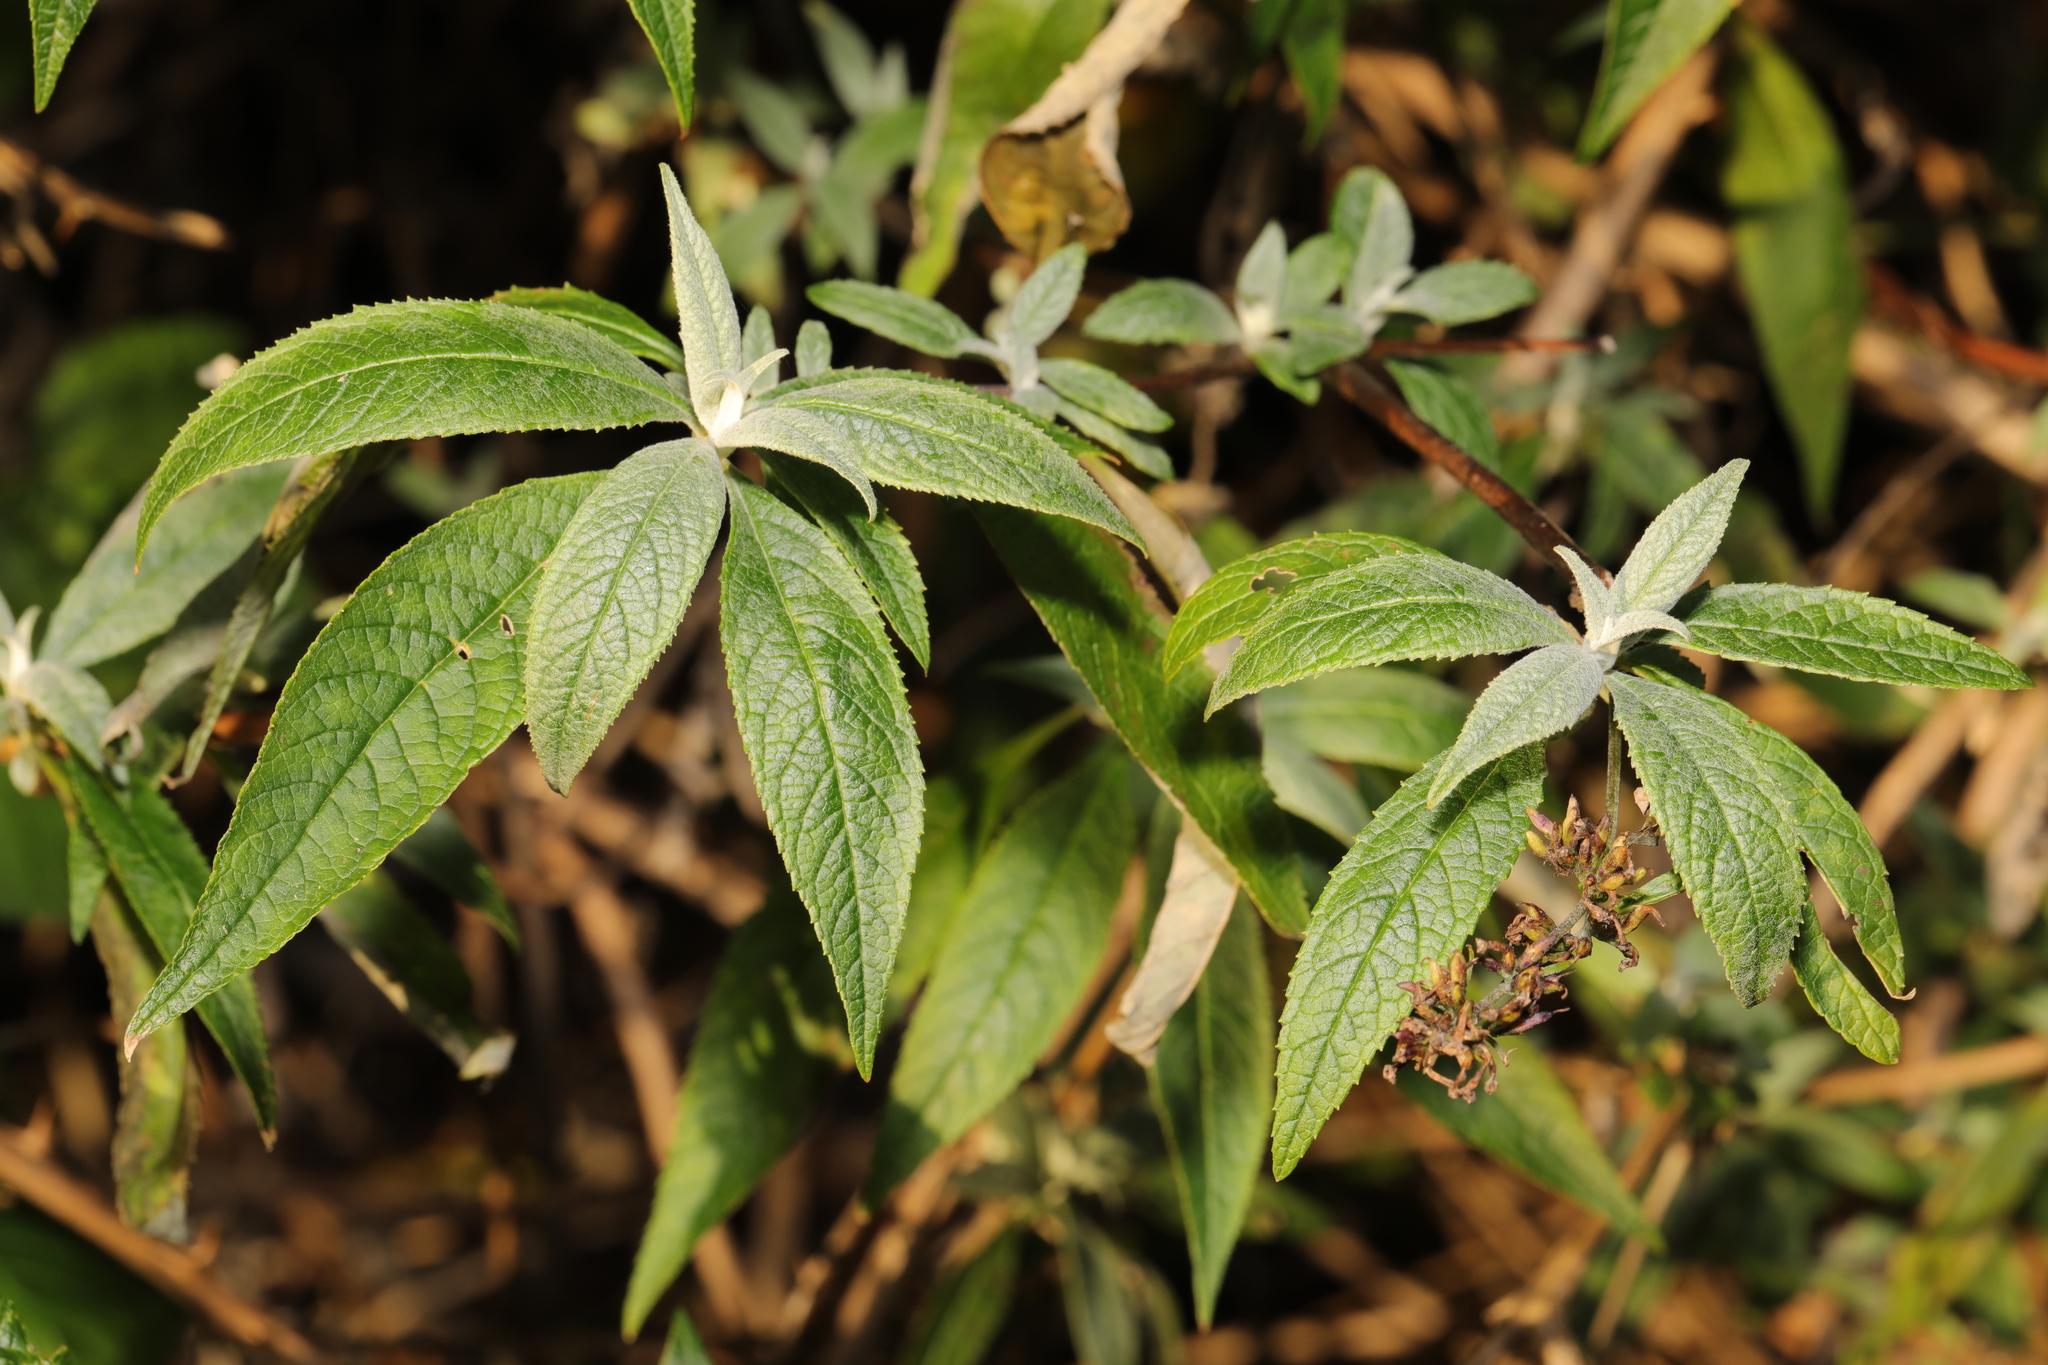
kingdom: Plantae
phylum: Tracheophyta
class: Magnoliopsida
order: Lamiales
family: Scrophulariaceae
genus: Buddleja
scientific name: Buddleja davidii
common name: Butterfly-bush
